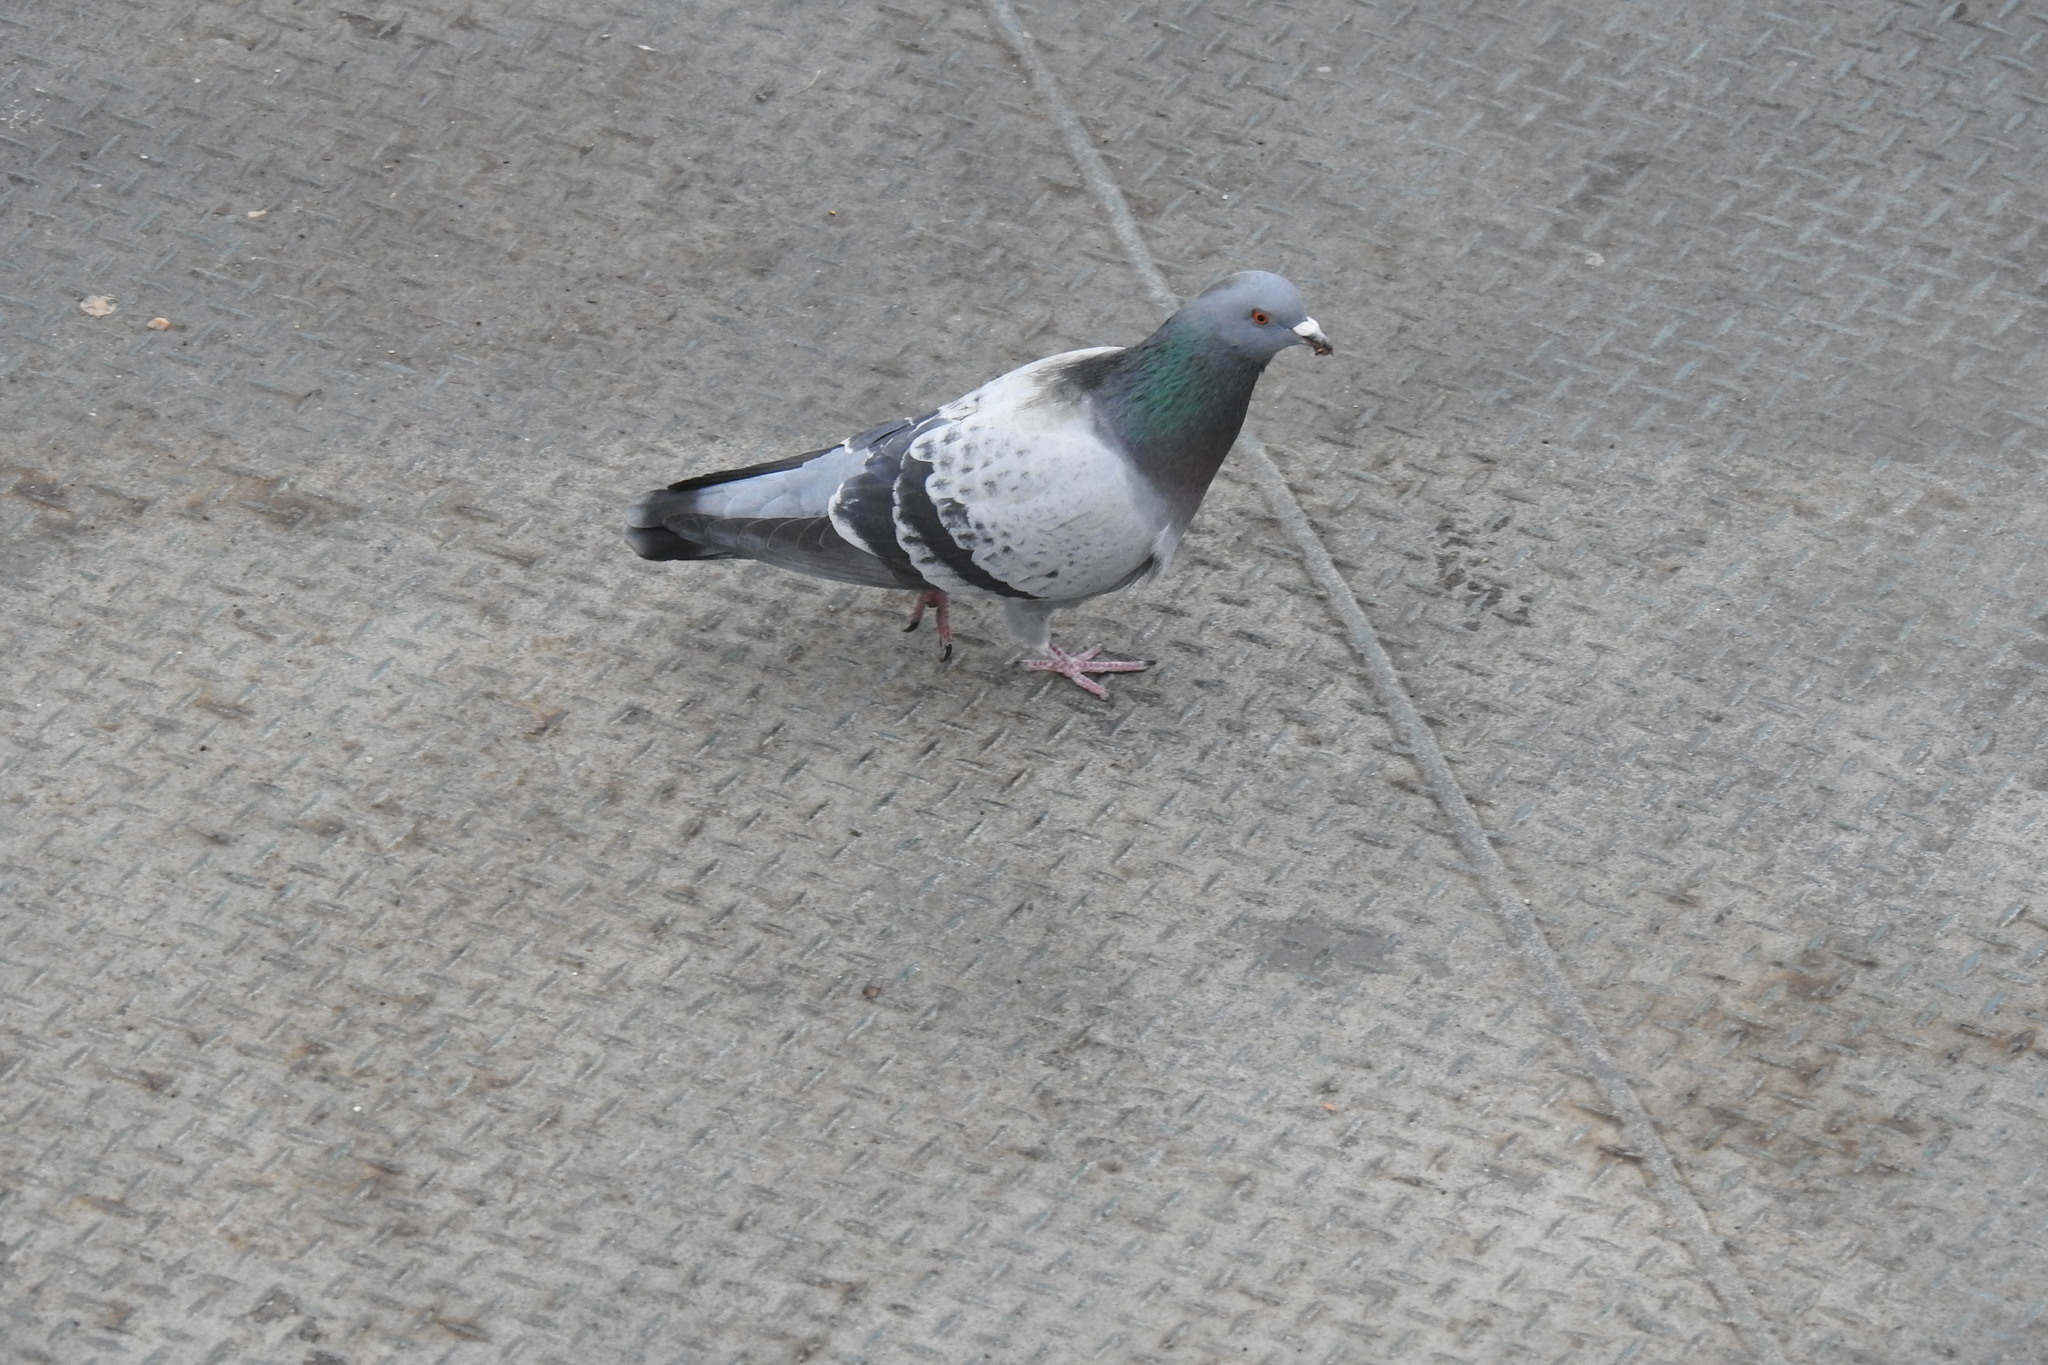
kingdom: Animalia
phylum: Chordata
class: Aves
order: Columbiformes
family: Columbidae
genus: Columba
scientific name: Columba livia
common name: Rock pigeon
